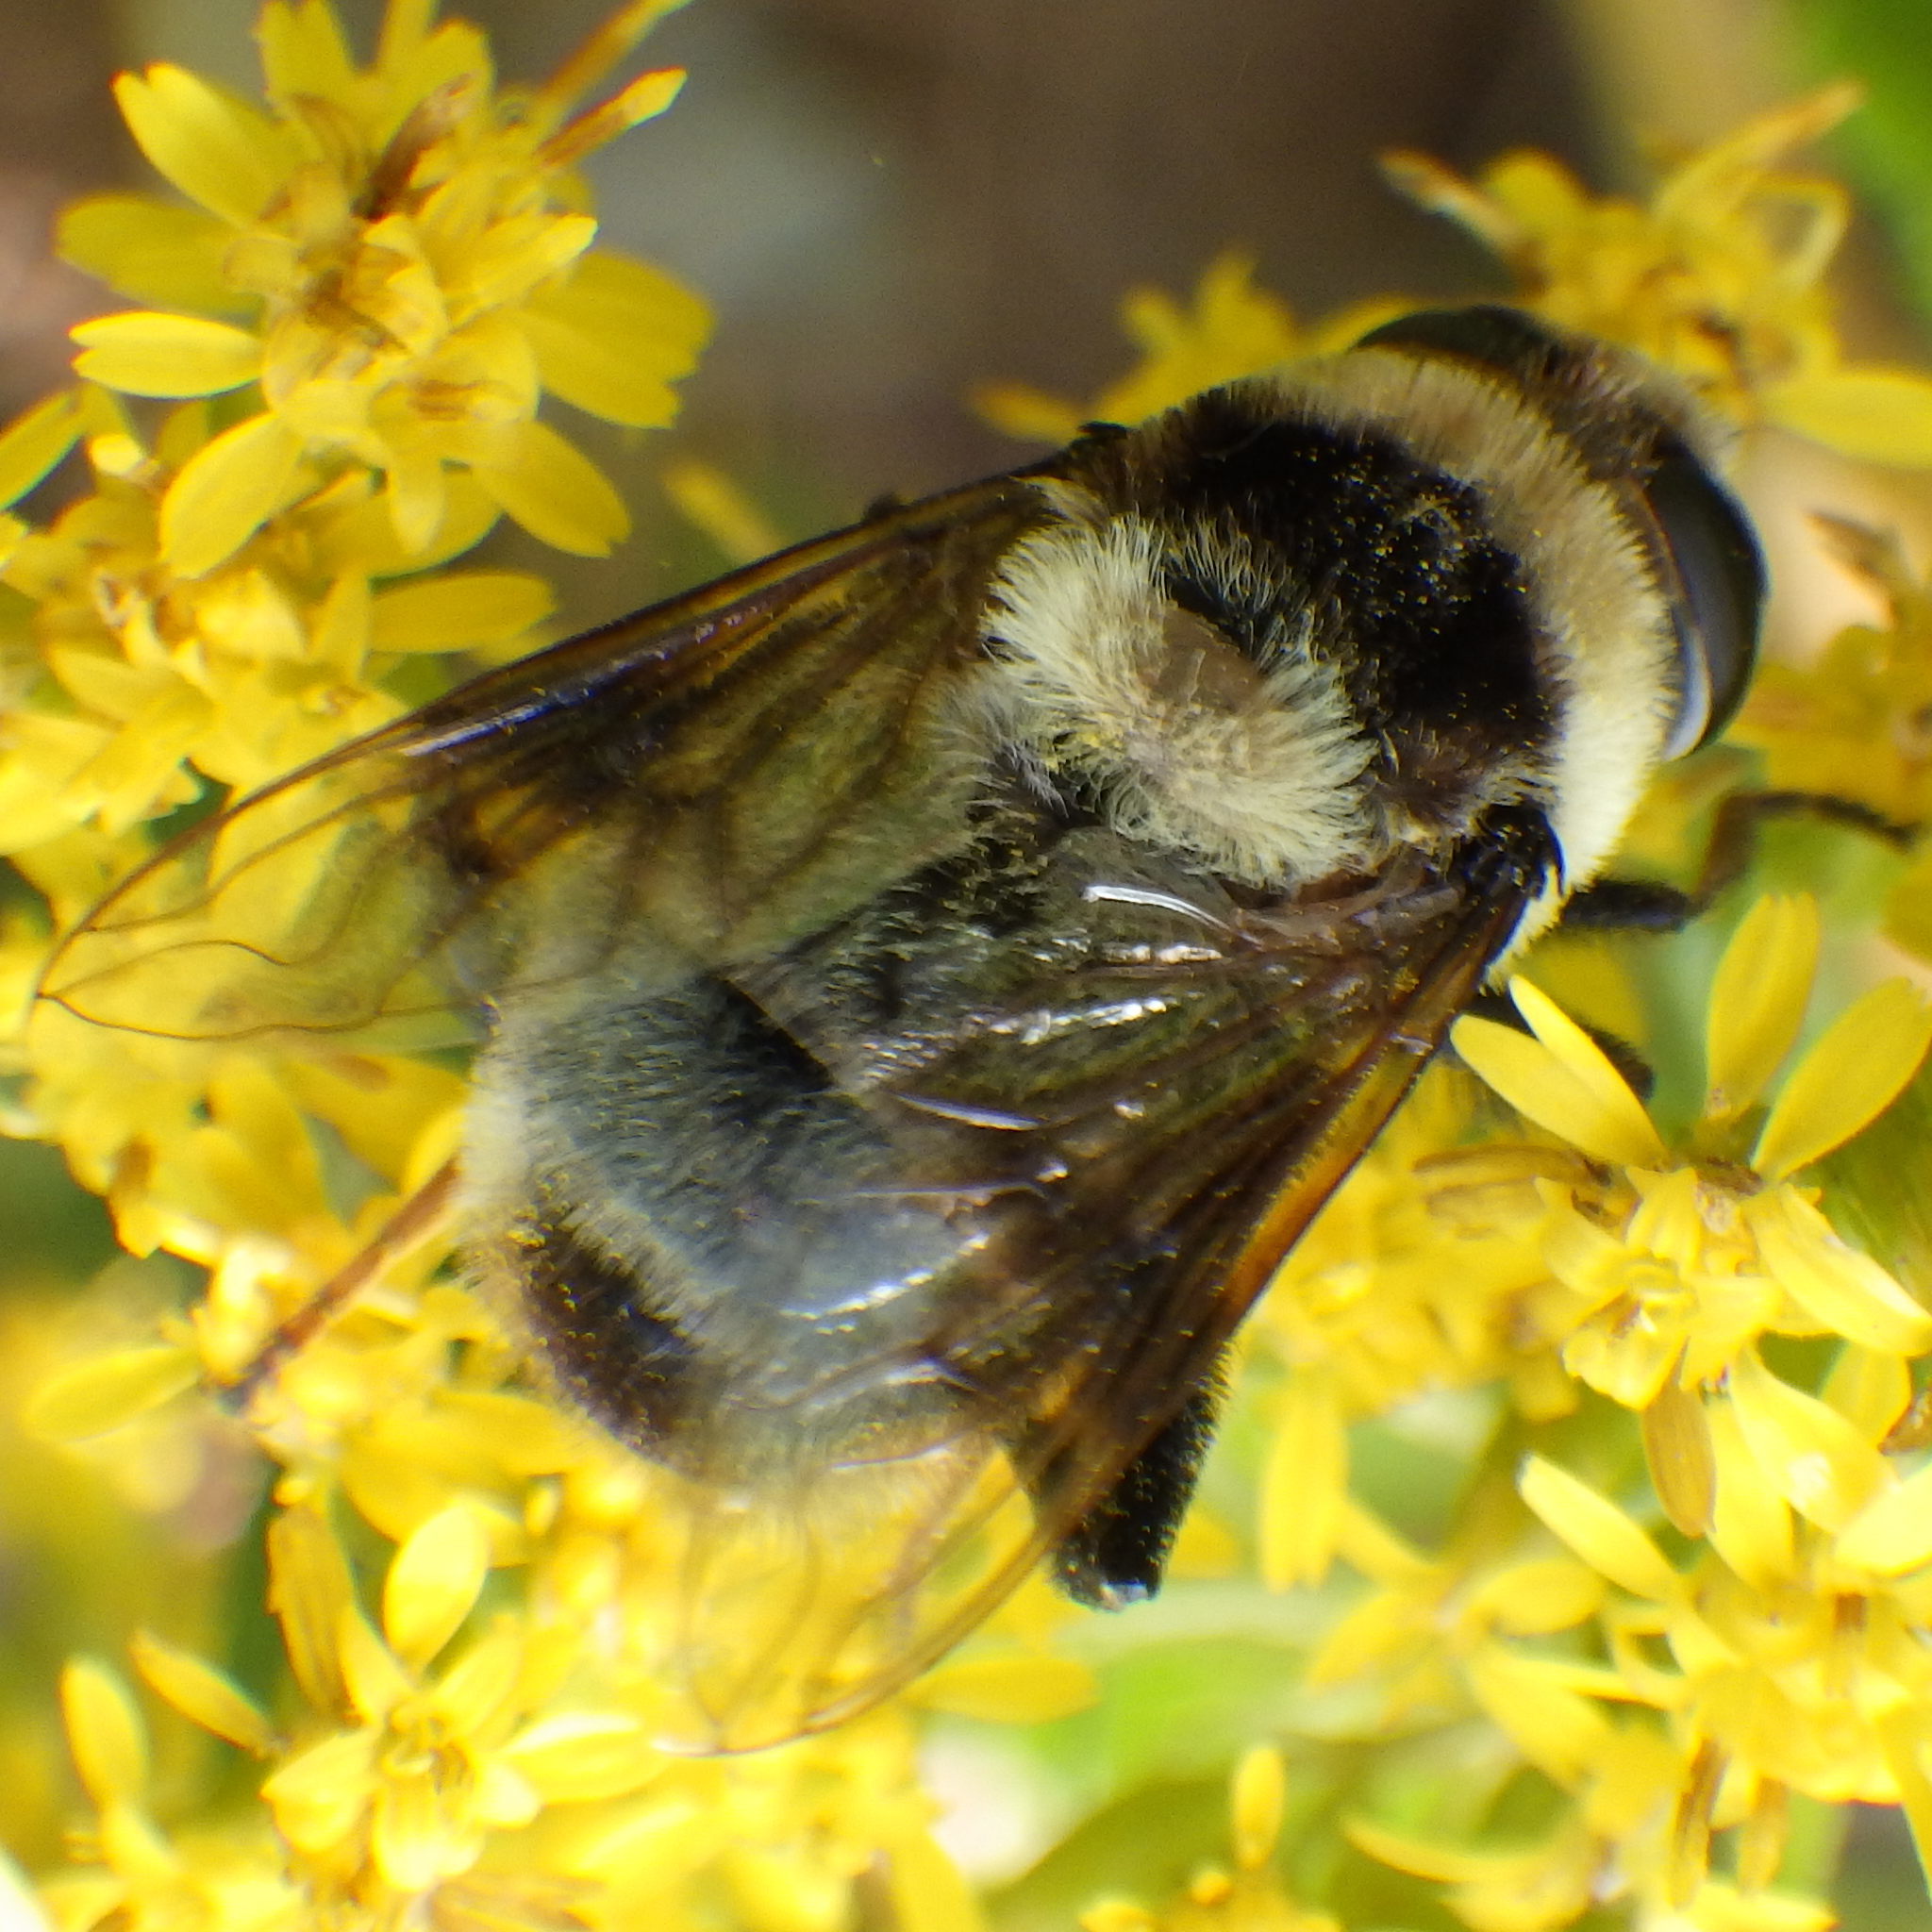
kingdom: Animalia
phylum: Arthropoda
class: Insecta
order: Diptera
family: Syrphidae
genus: Eristalis
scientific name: Eristalis flavipes
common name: Orange-legged drone fly
